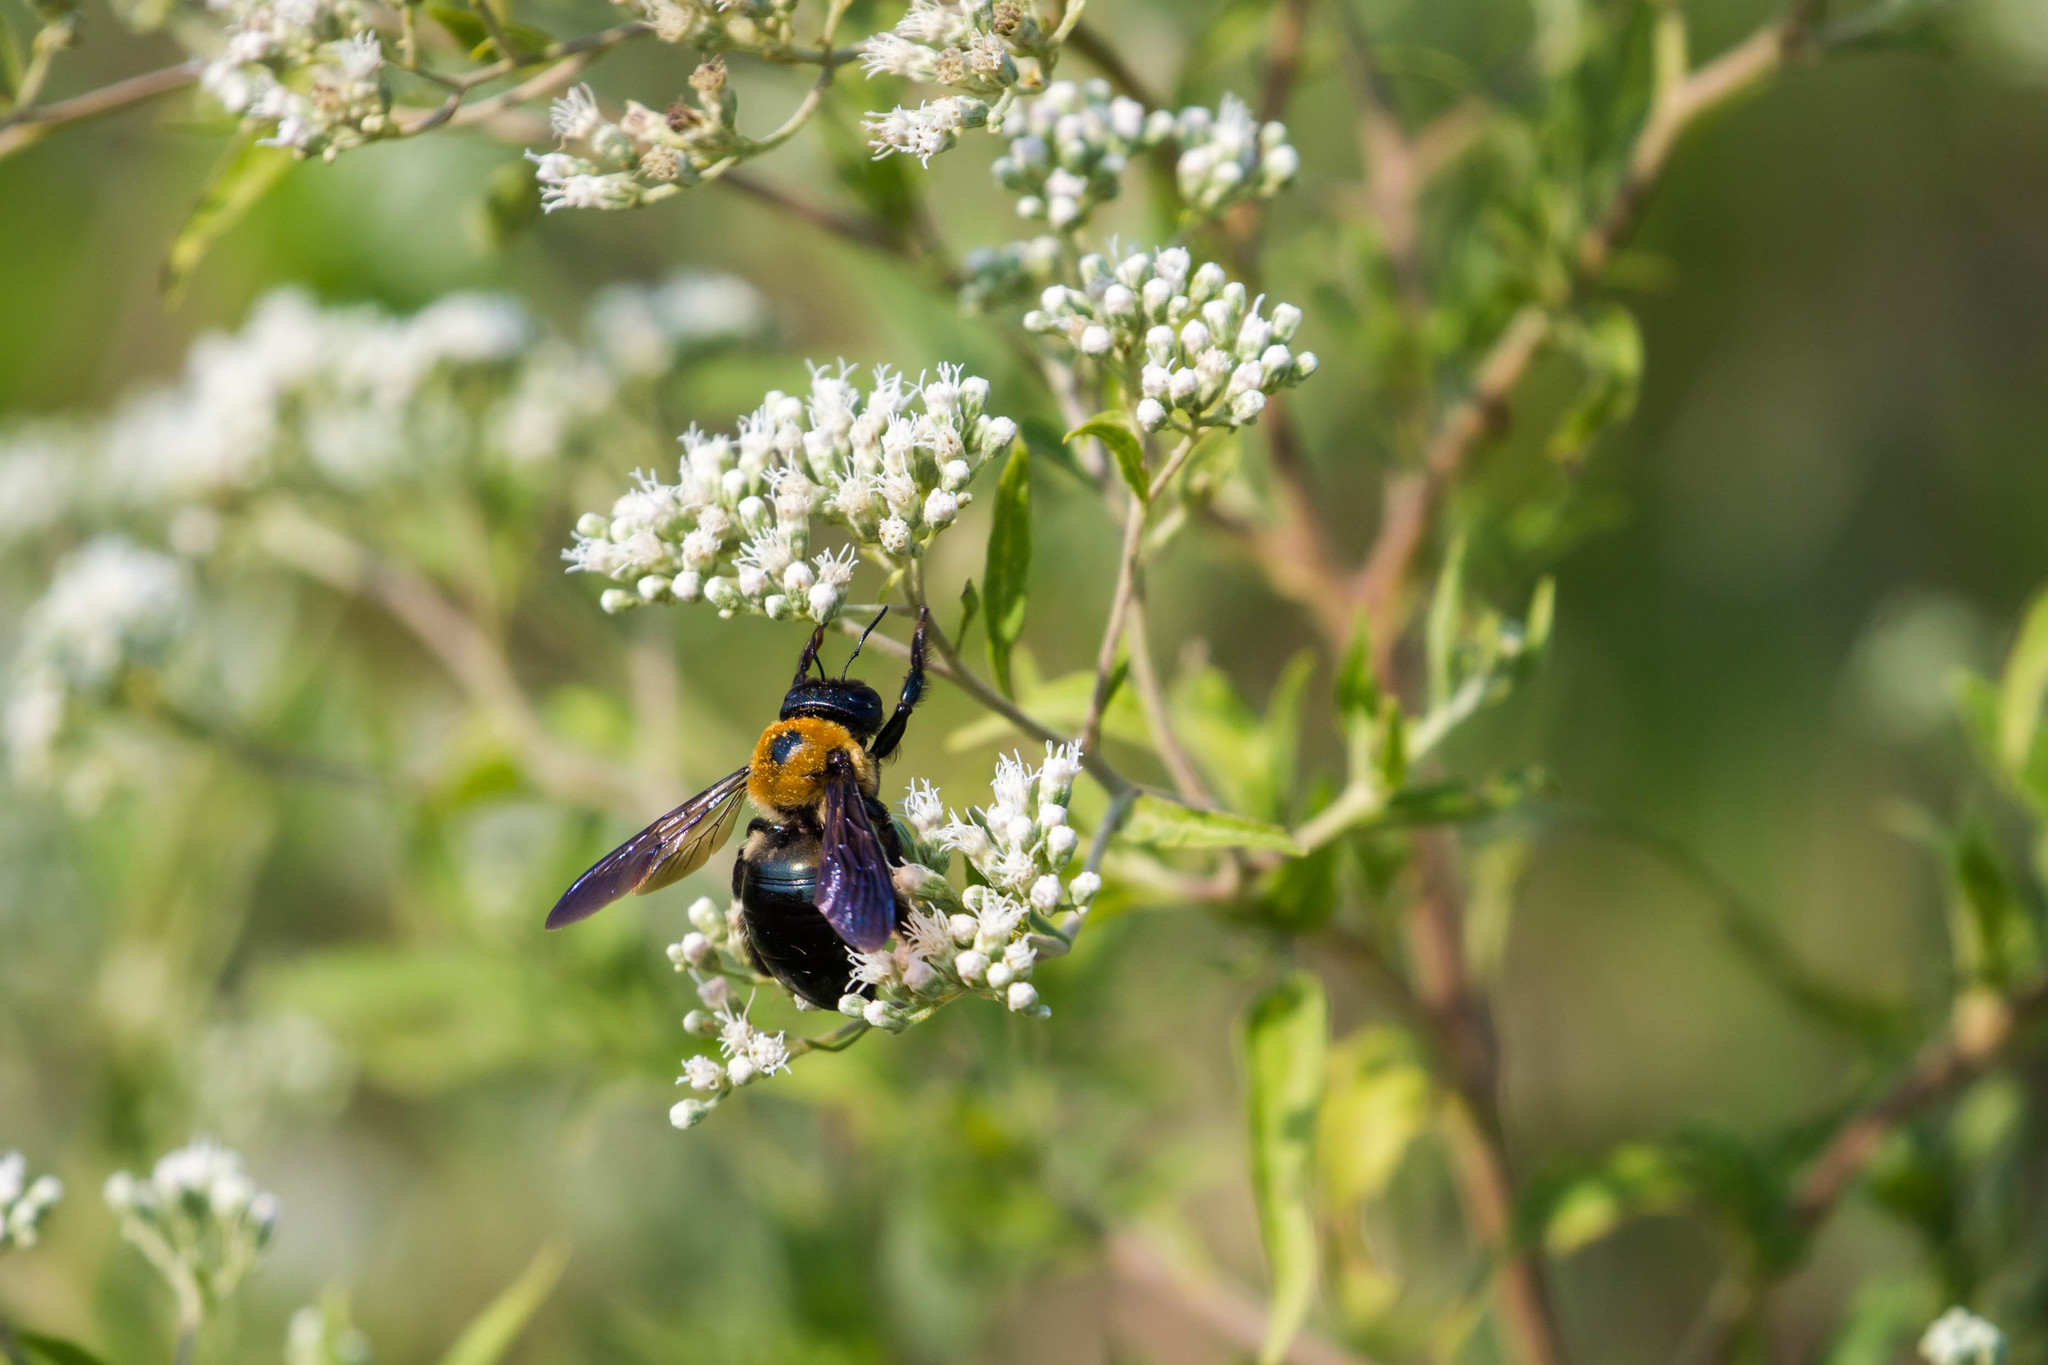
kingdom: Animalia
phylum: Arthropoda
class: Insecta
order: Hymenoptera
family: Apidae
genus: Xylocopa
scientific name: Xylocopa virginica
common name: Carpenter bee
